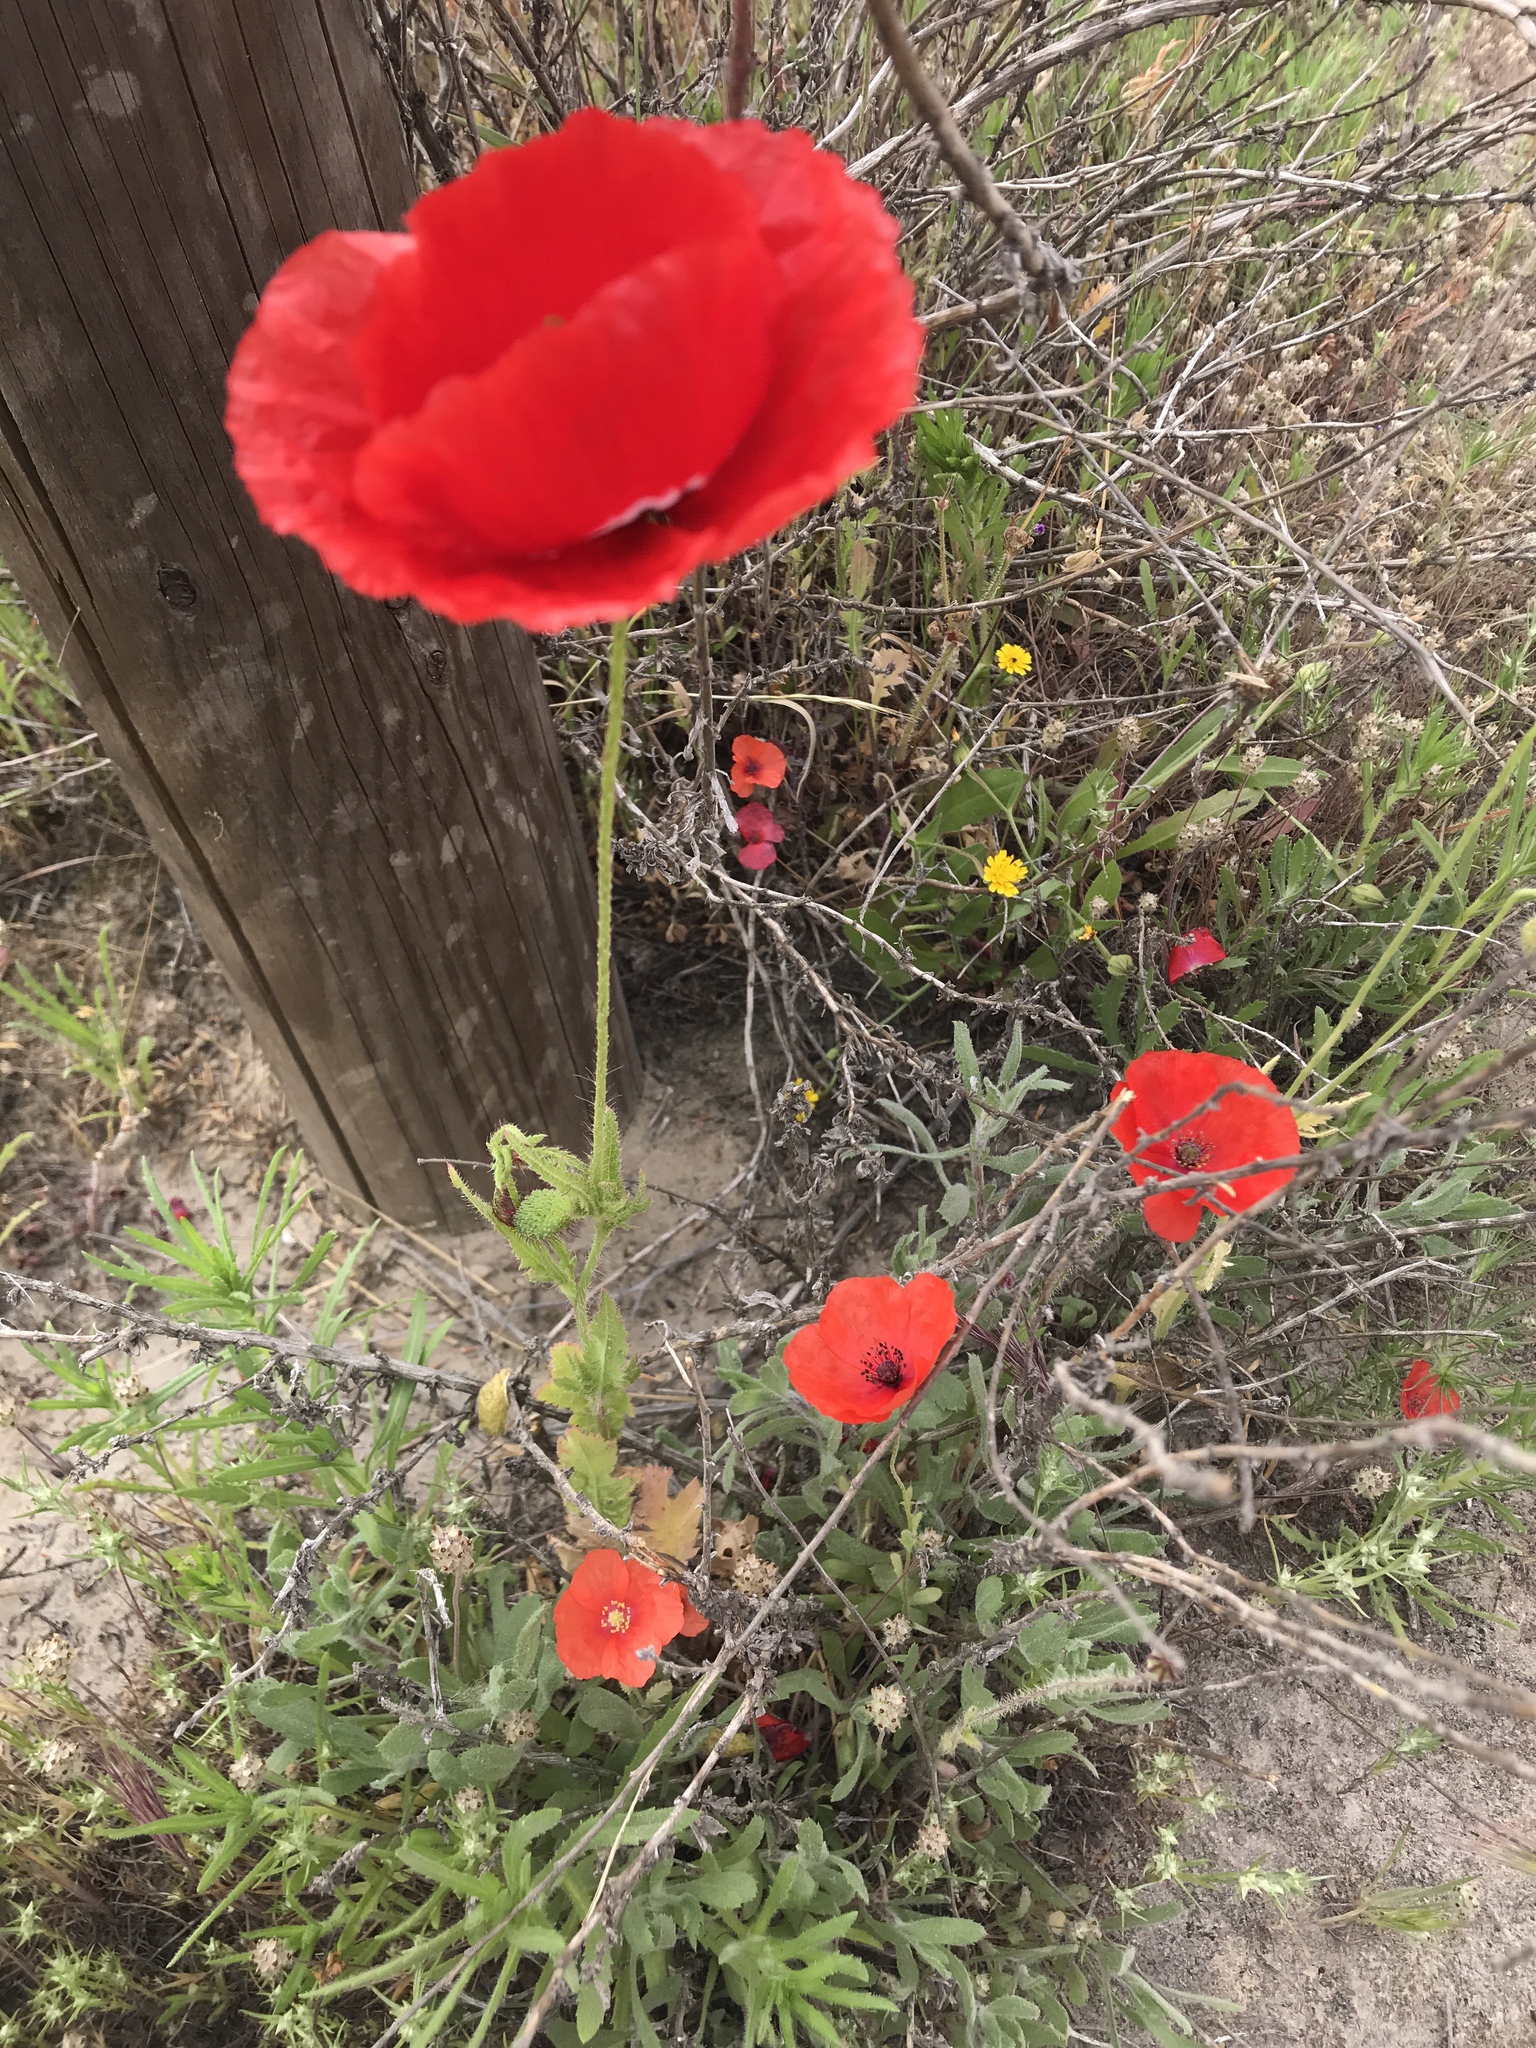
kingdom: Plantae
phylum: Tracheophyta
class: Magnoliopsida
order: Ranunculales
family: Papaveraceae
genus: Papaver
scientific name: Papaver rhoeas
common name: Corn poppy
